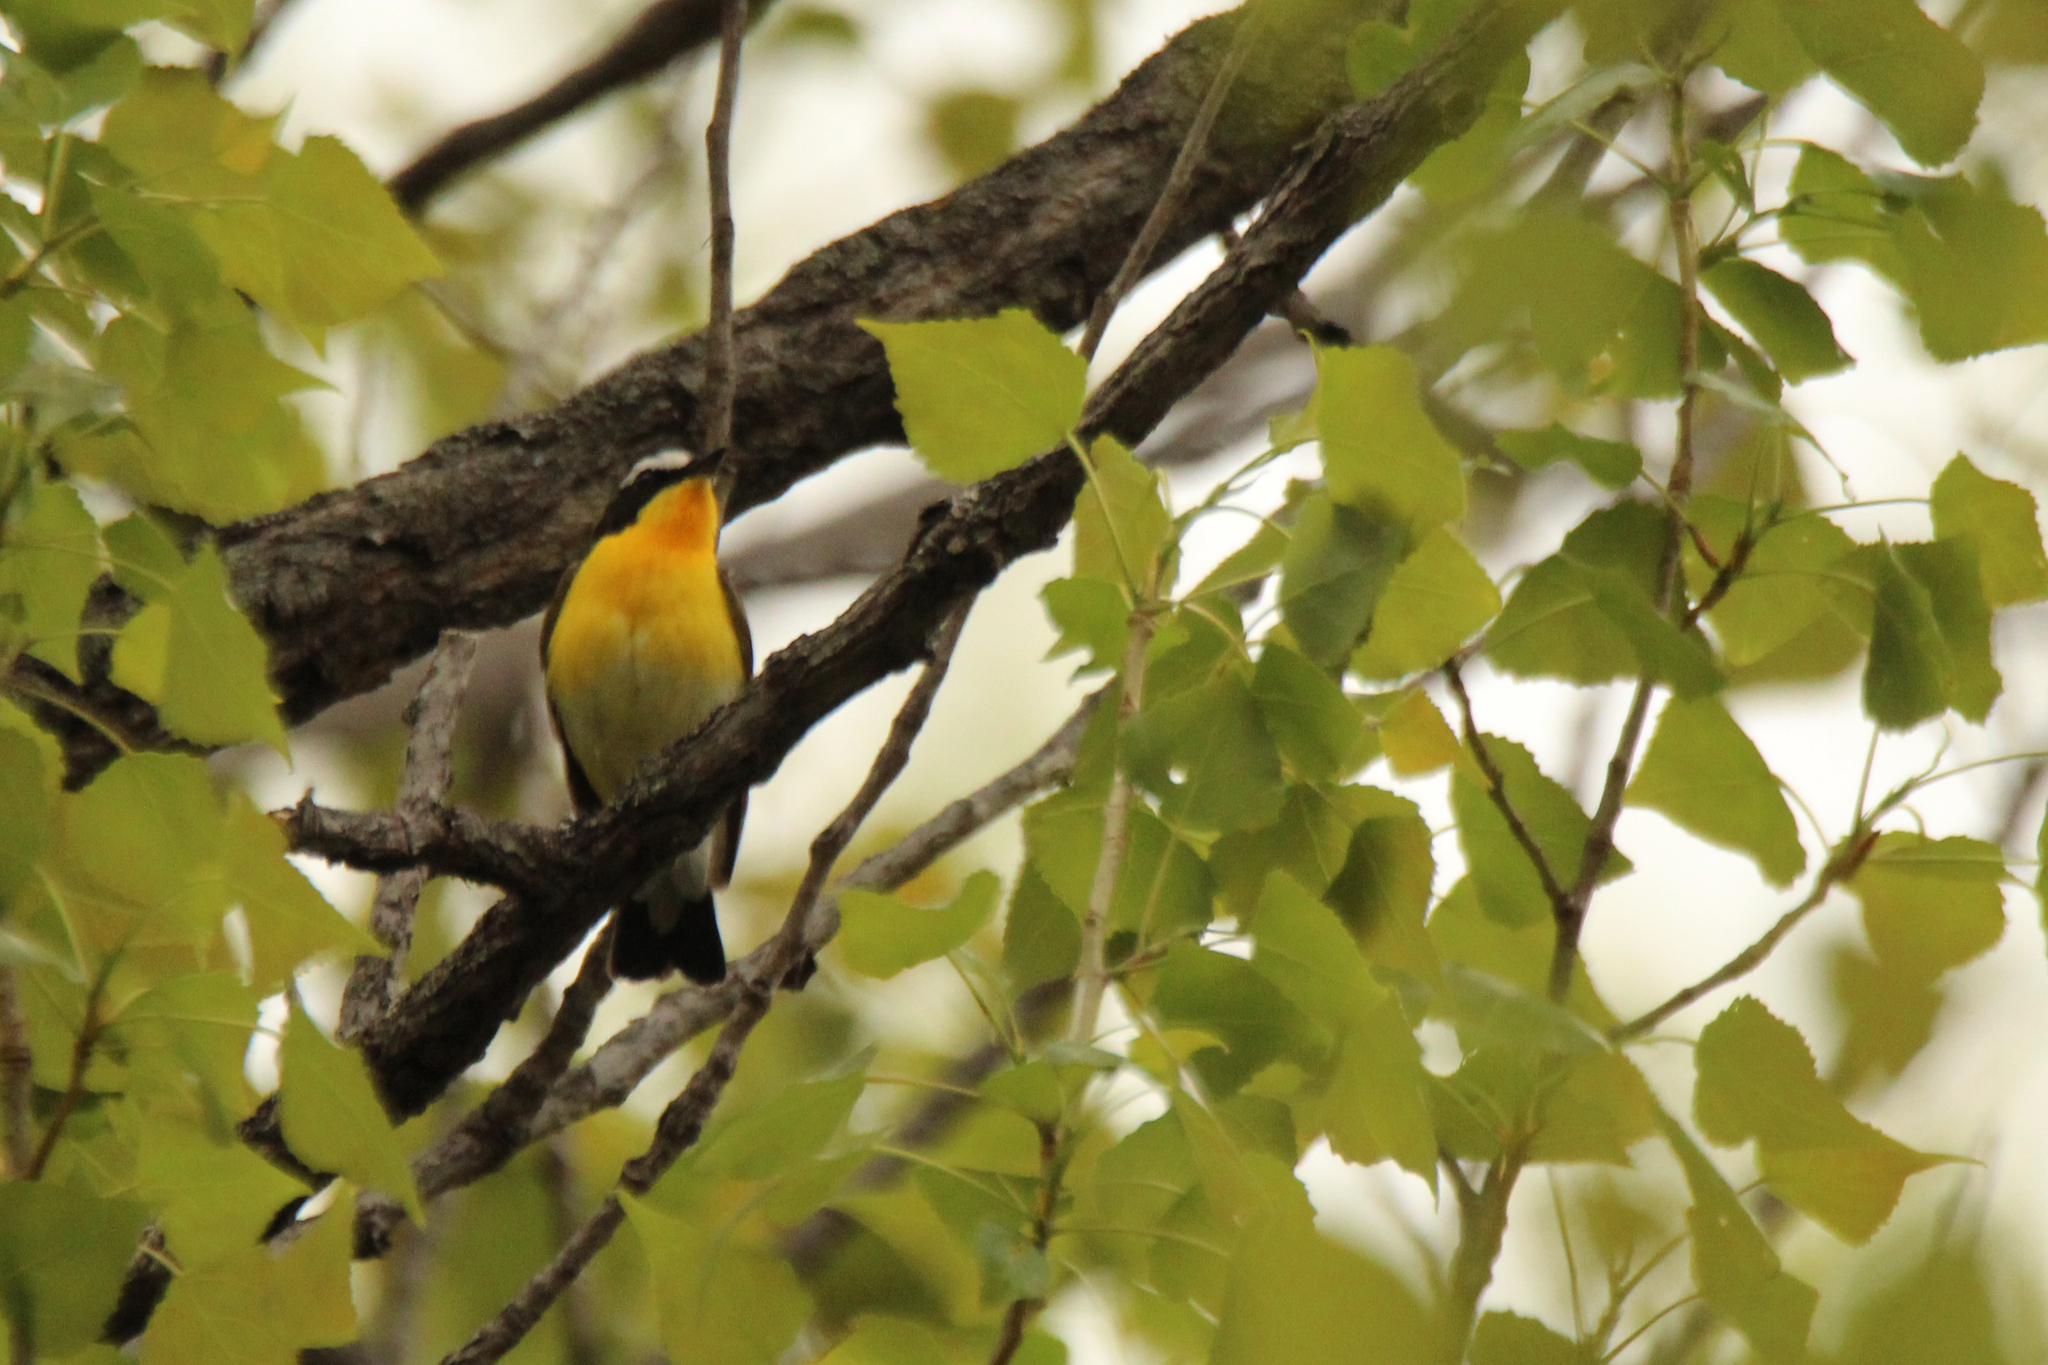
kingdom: Animalia
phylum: Chordata
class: Aves
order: Passeriformes
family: Muscicapidae
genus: Ficedula
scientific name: Ficedula zanthopygia
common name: Yellow-rumped flycatcher
